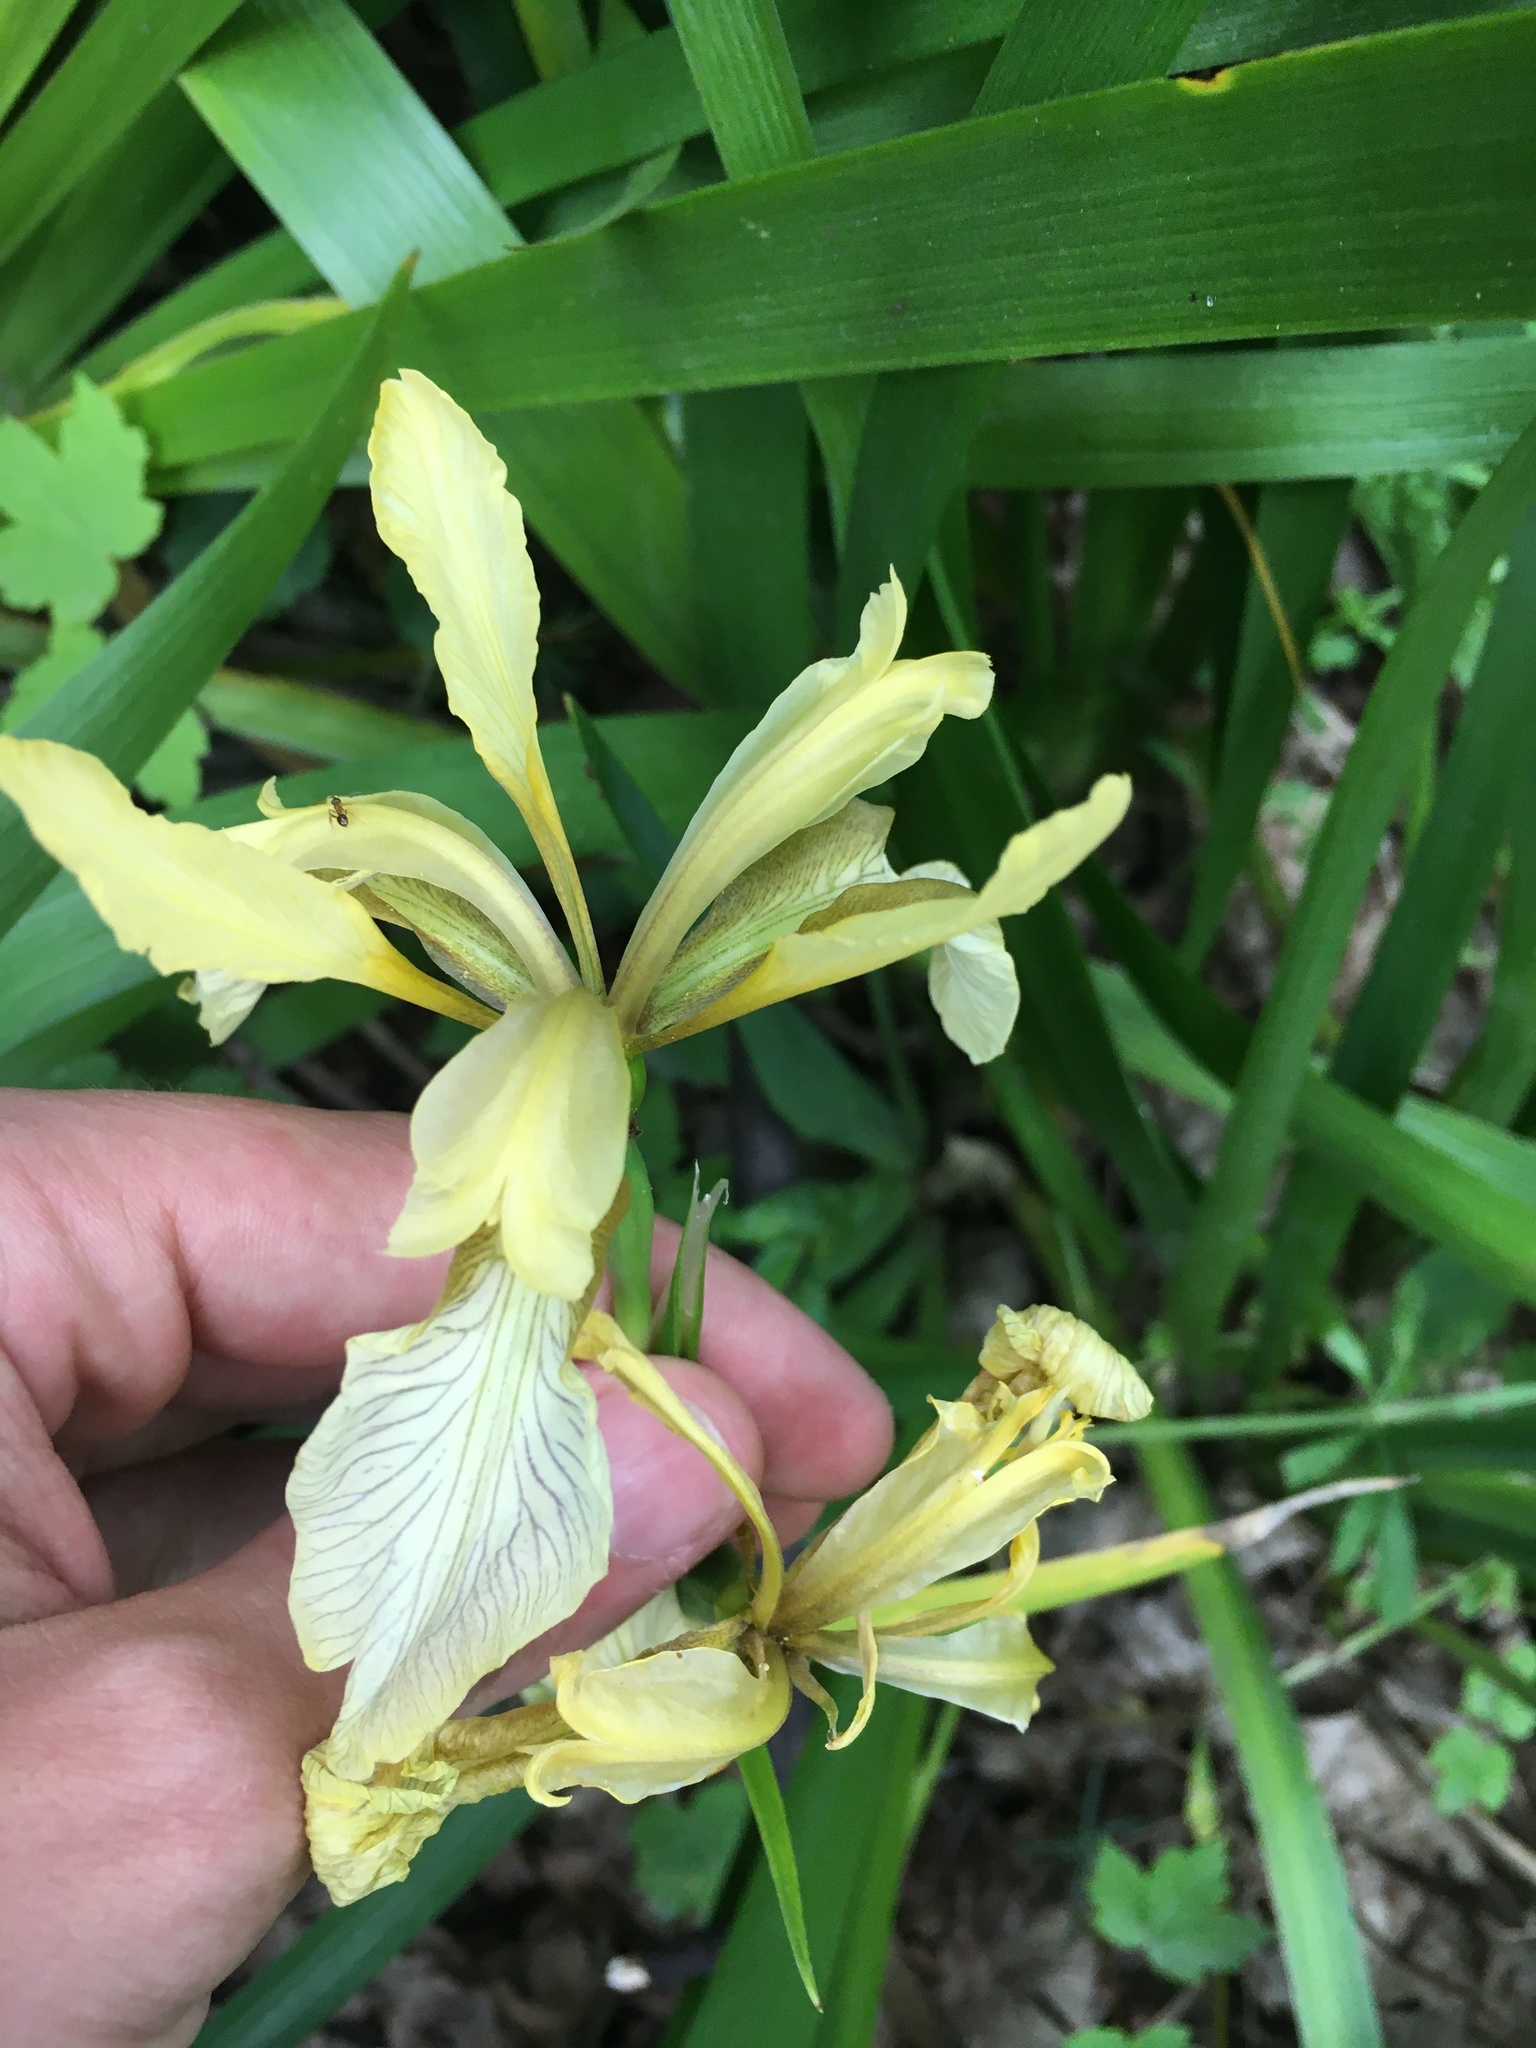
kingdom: Plantae
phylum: Tracheophyta
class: Liliopsida
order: Asparagales
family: Iridaceae
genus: Iris
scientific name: Iris foetidissima
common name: Stinking iris
